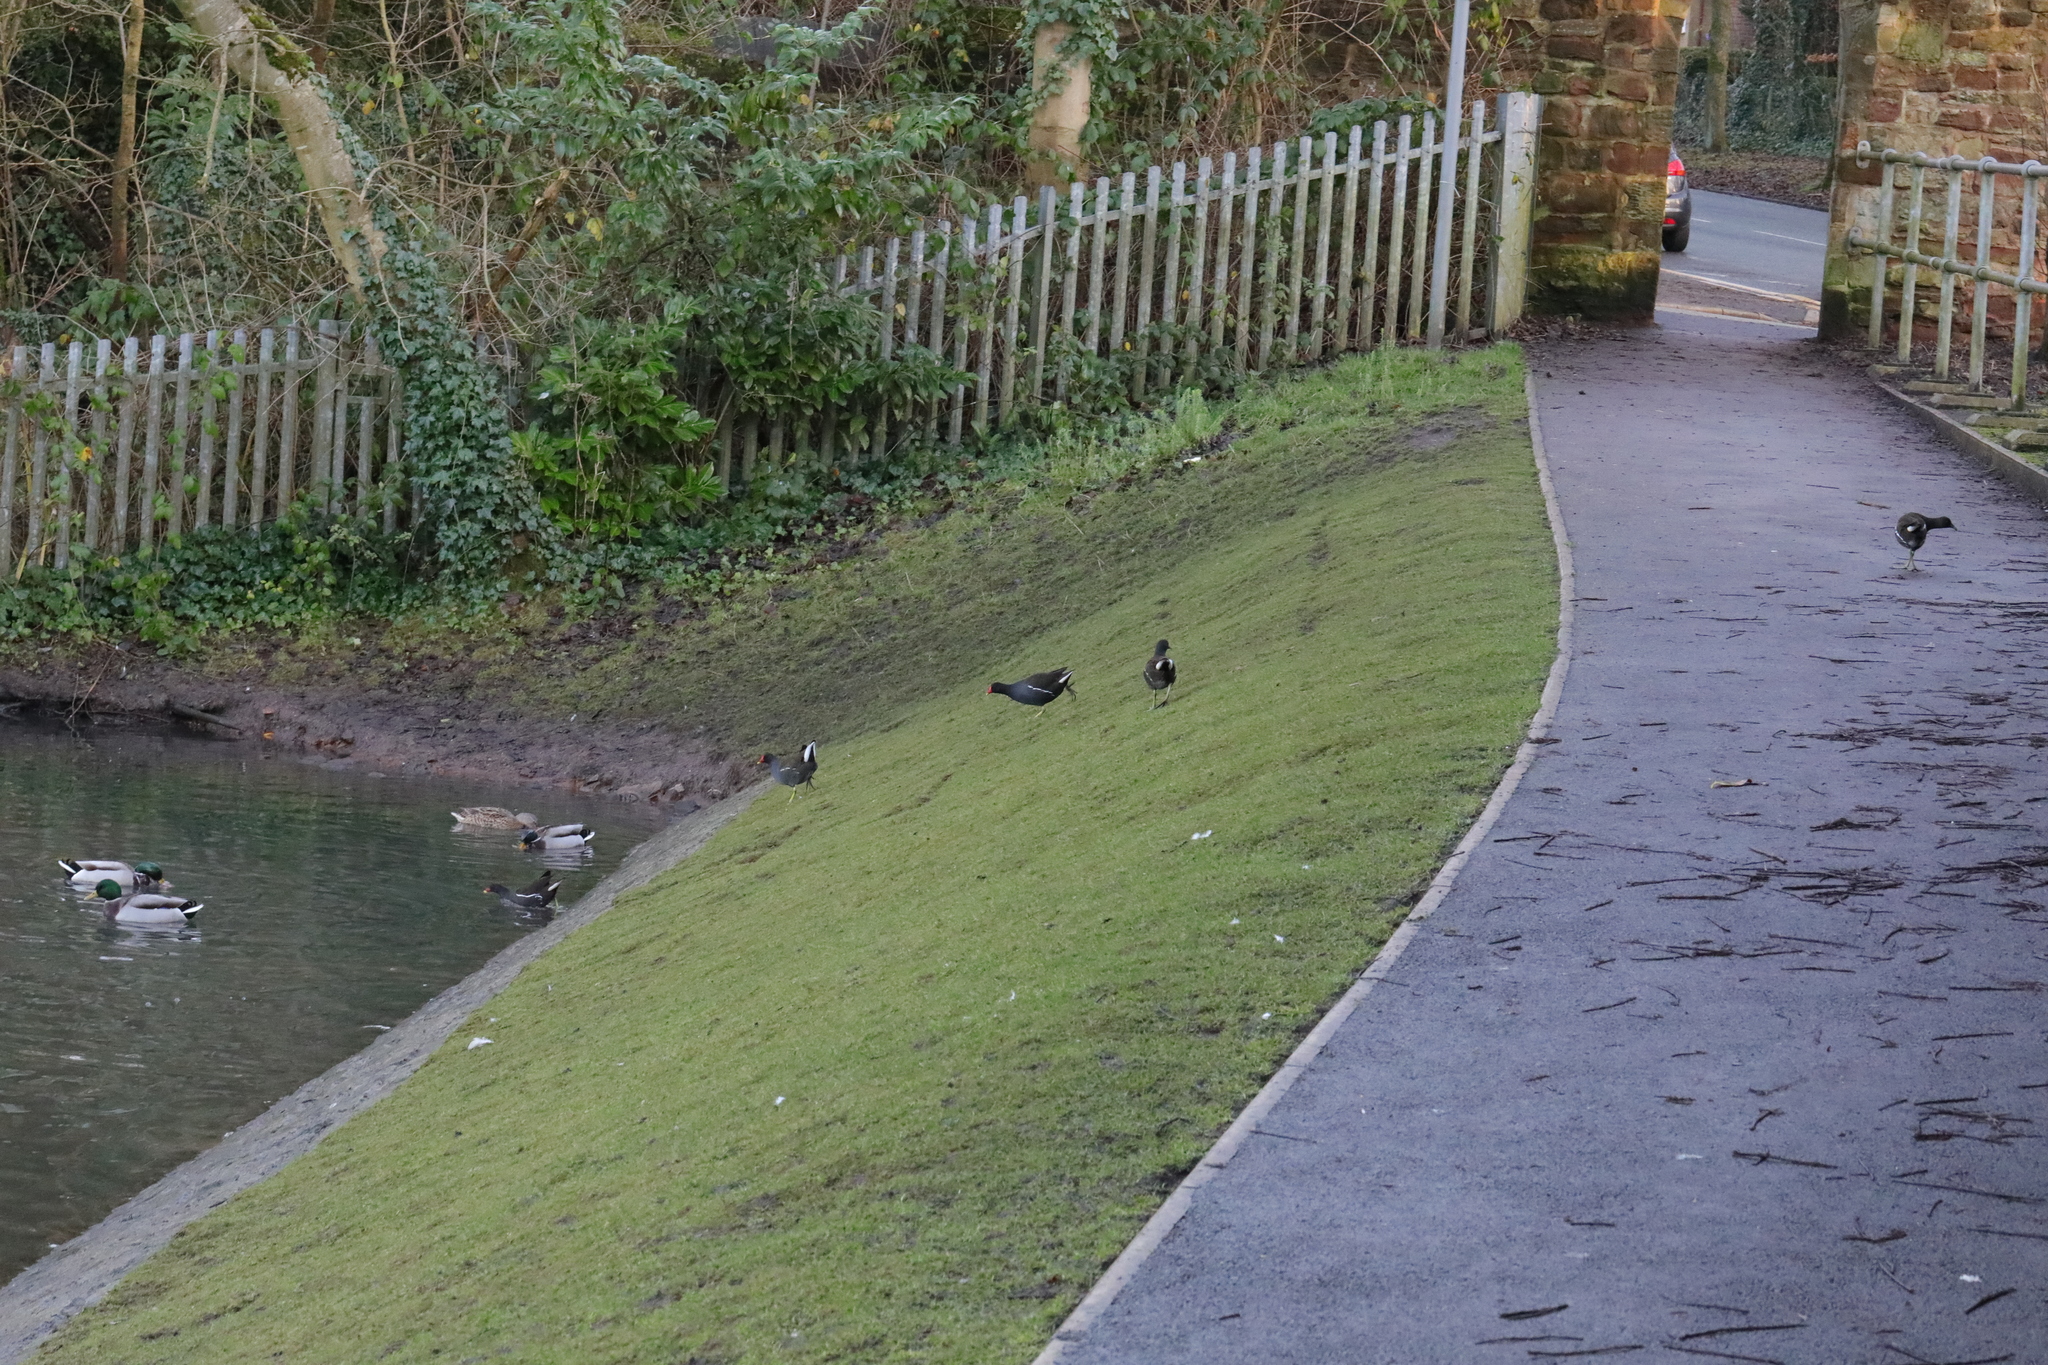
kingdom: Animalia
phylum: Chordata
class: Aves
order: Gruiformes
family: Rallidae
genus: Gallinula
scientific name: Gallinula chloropus
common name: Common moorhen
